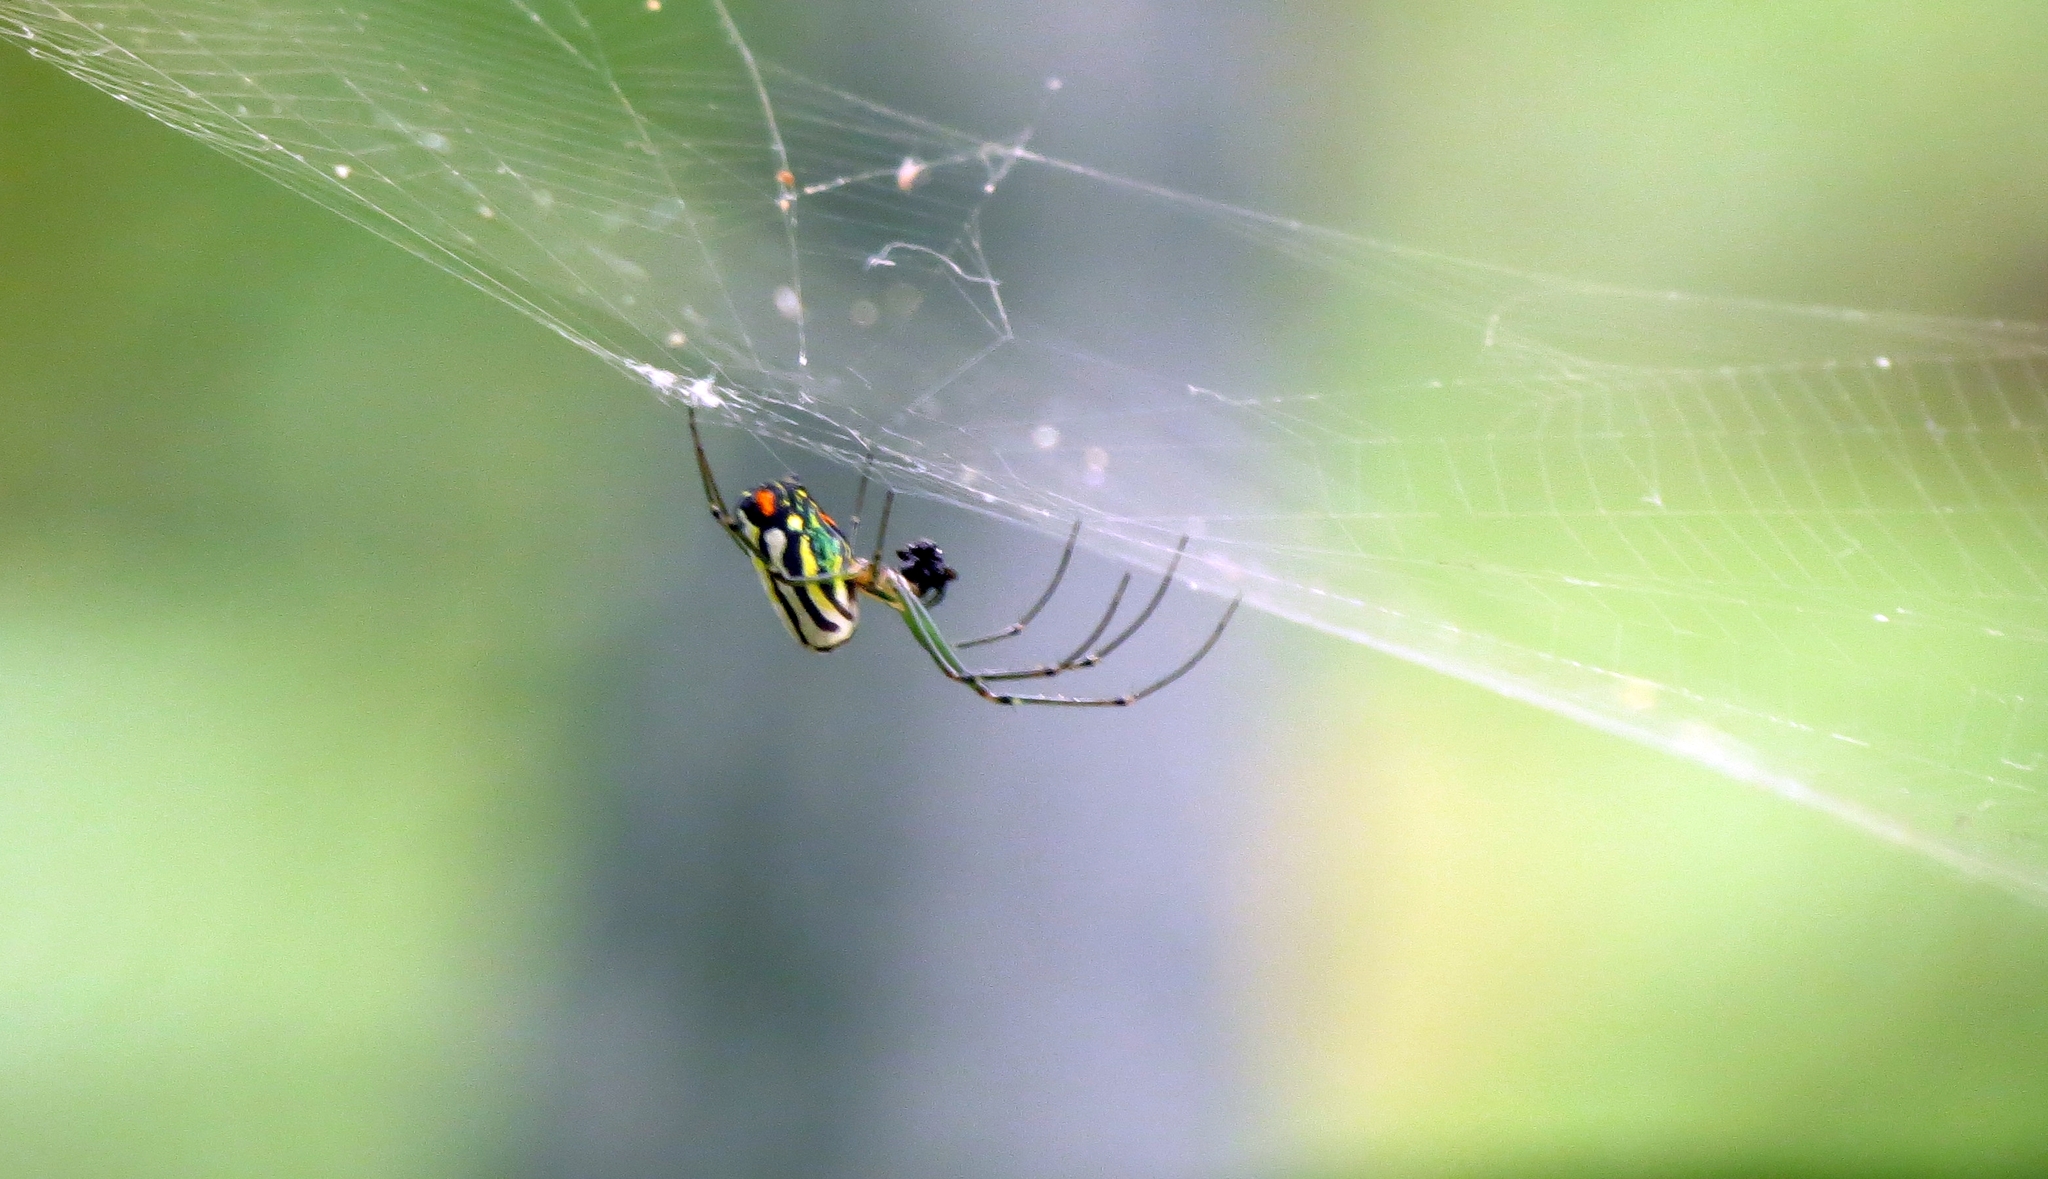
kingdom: Animalia
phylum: Arthropoda
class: Arachnida
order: Araneae
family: Tetragnathidae
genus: Leucauge
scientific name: Leucauge argyrobapta
